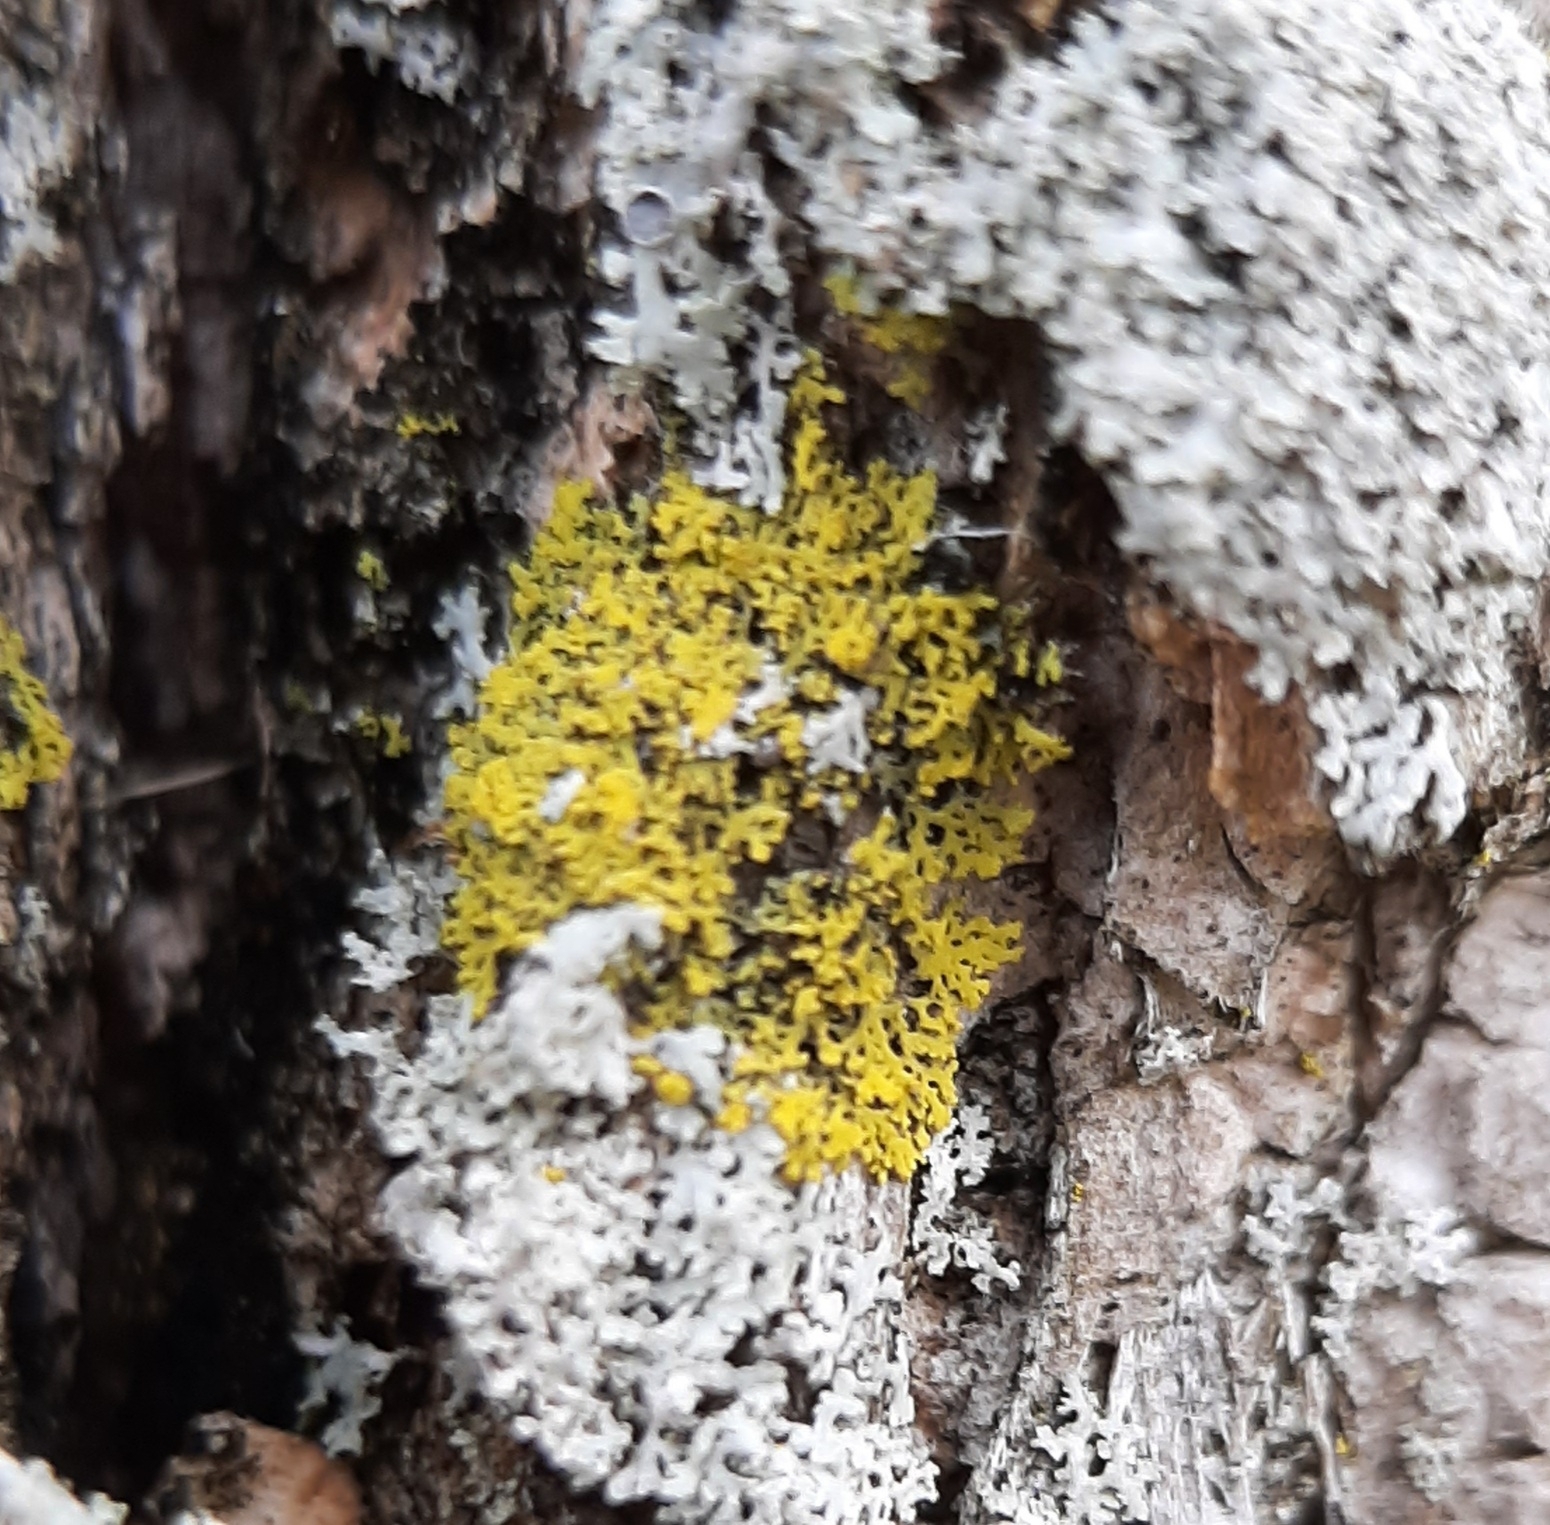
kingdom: Fungi
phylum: Ascomycota
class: Candelariomycetes
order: Candelariales
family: Candelariaceae
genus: Candelaria
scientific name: Candelaria concolor
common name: Candleflame lichen
